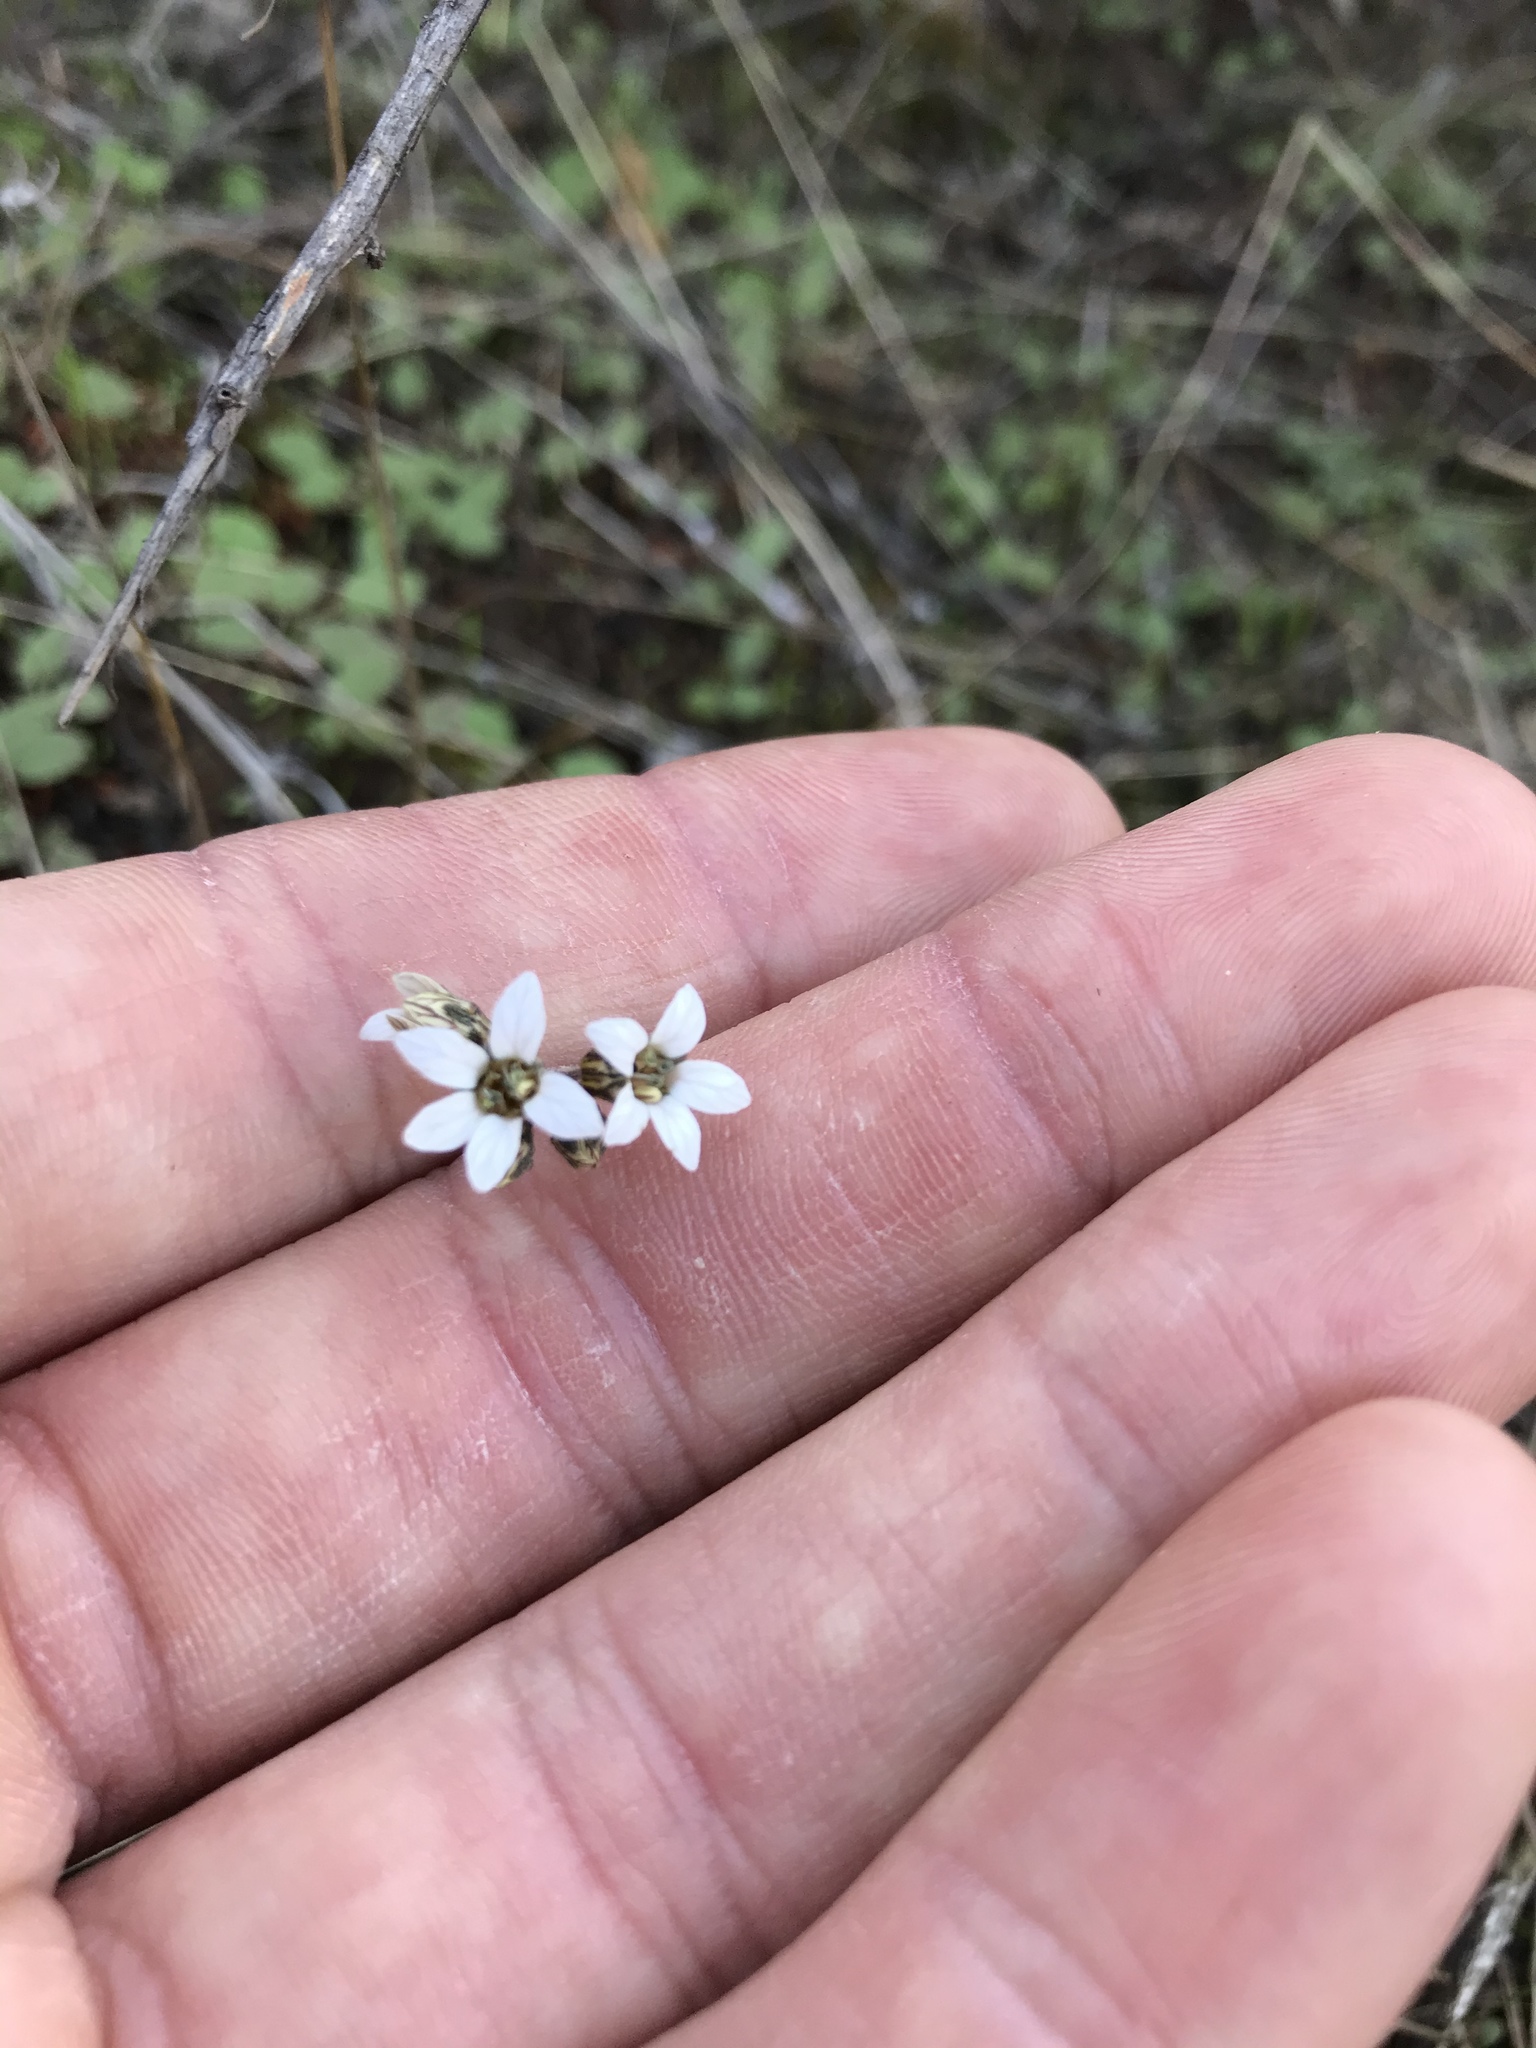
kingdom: Plantae
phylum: Tracheophyta
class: Magnoliopsida
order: Saxifragales
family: Saxifragaceae
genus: Jepsonia
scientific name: Jepsonia parryi
